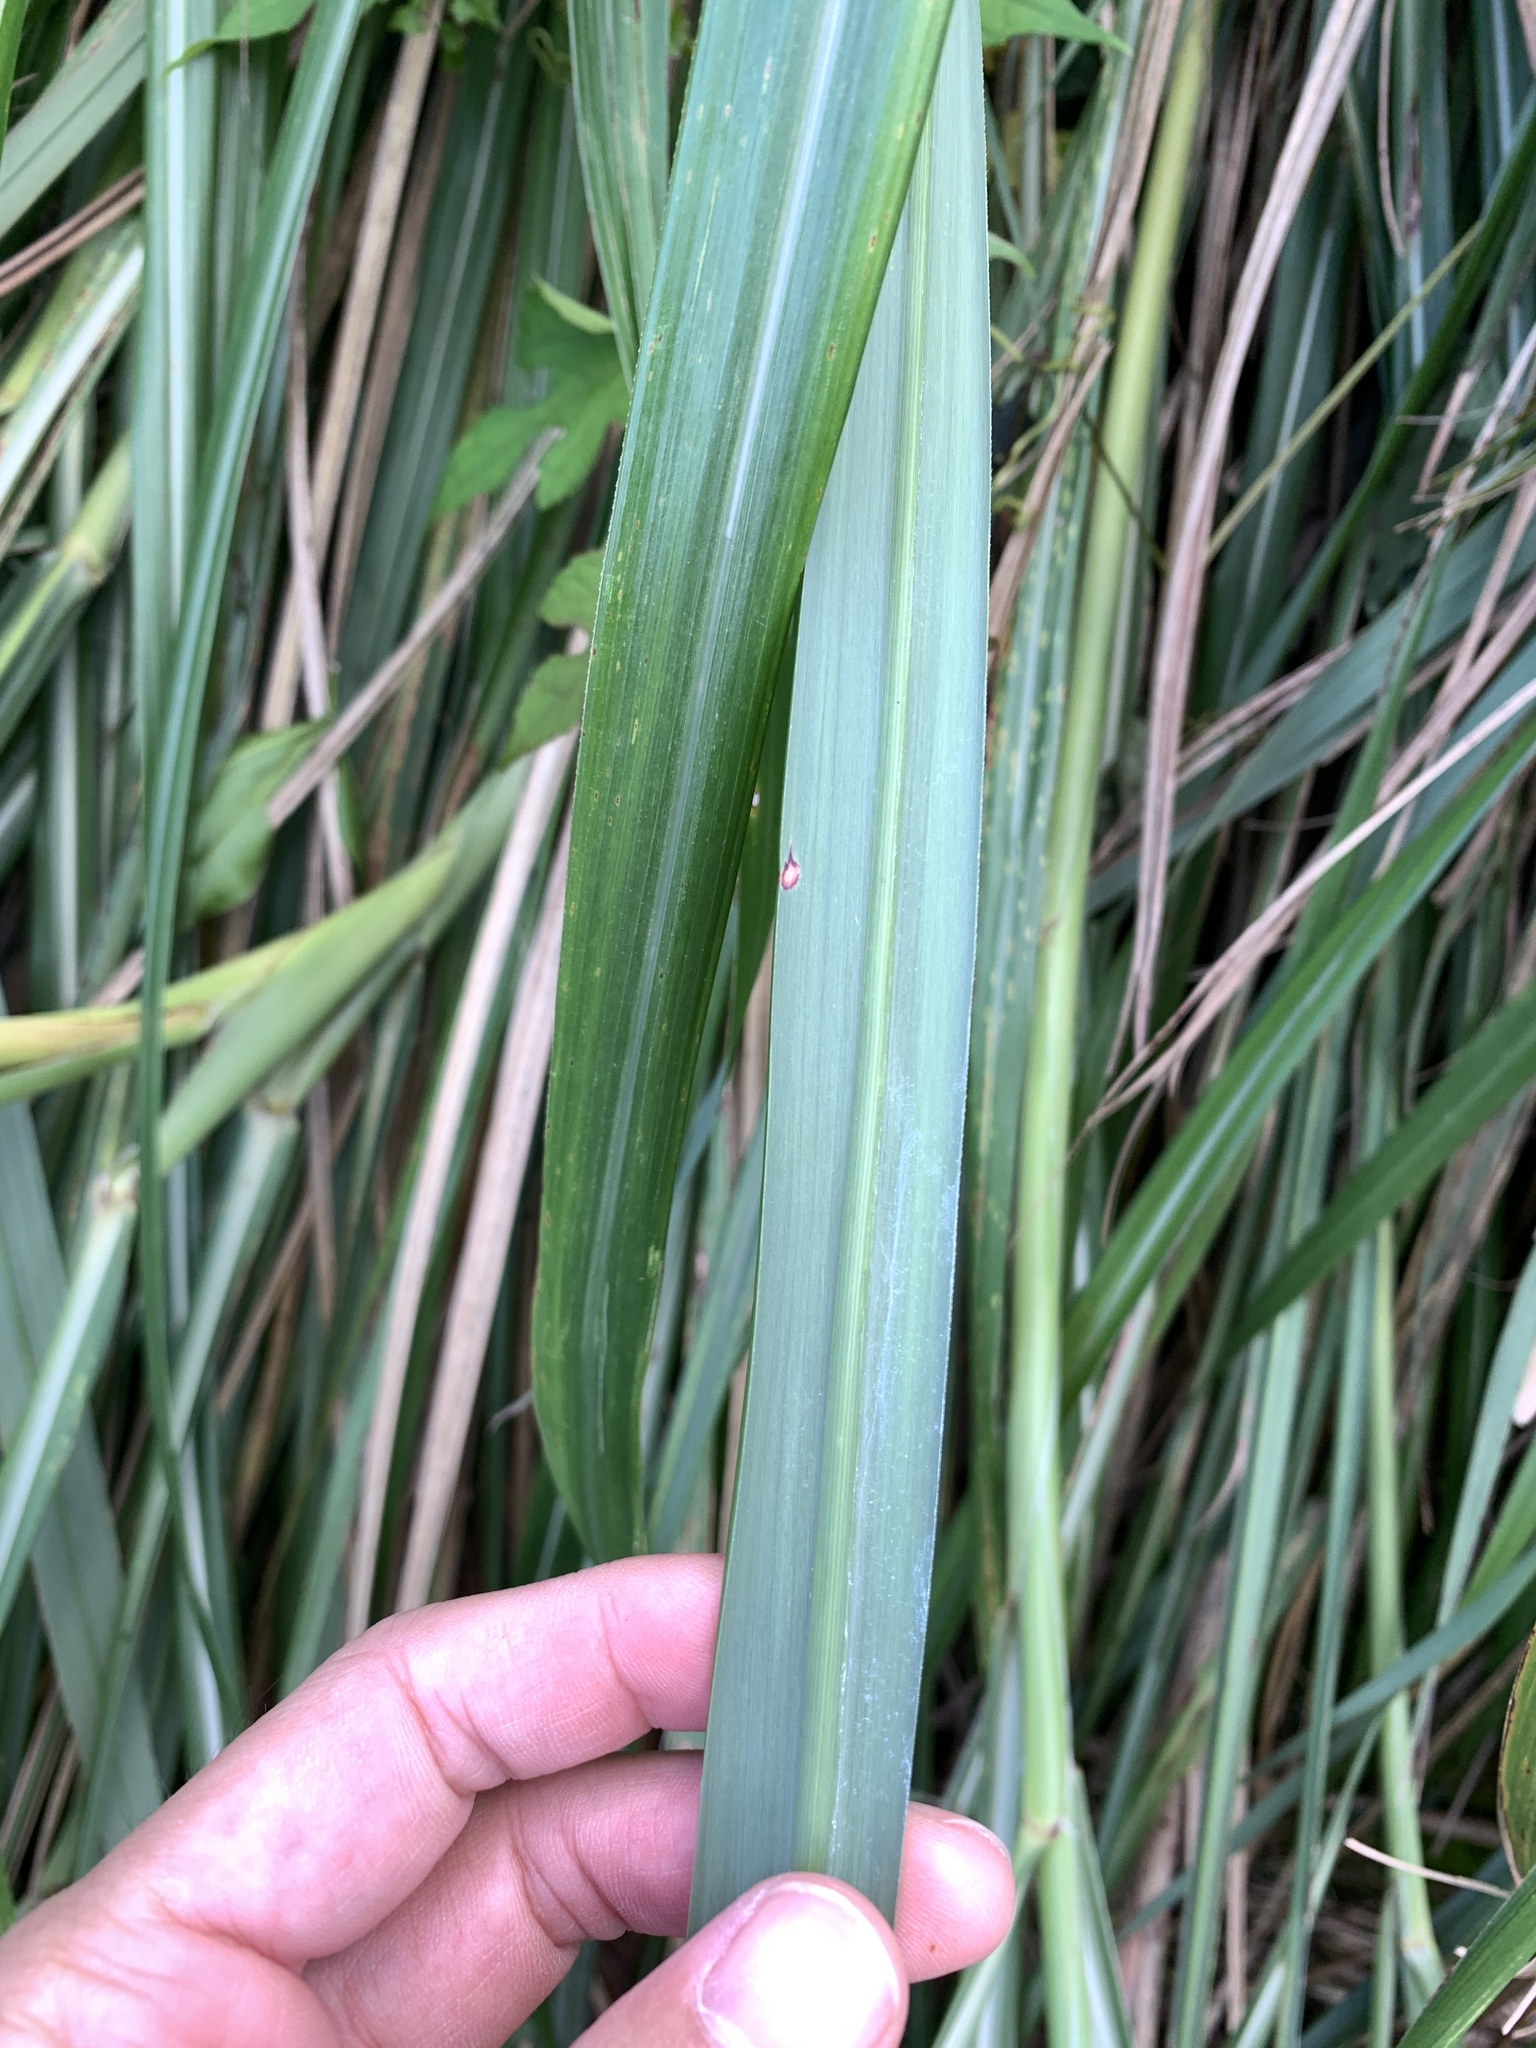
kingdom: Plantae
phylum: Tracheophyta
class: Liliopsida
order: Poales
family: Poaceae
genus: Miscanthus
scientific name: Miscanthus sinensis
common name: Chinese silvergrass
